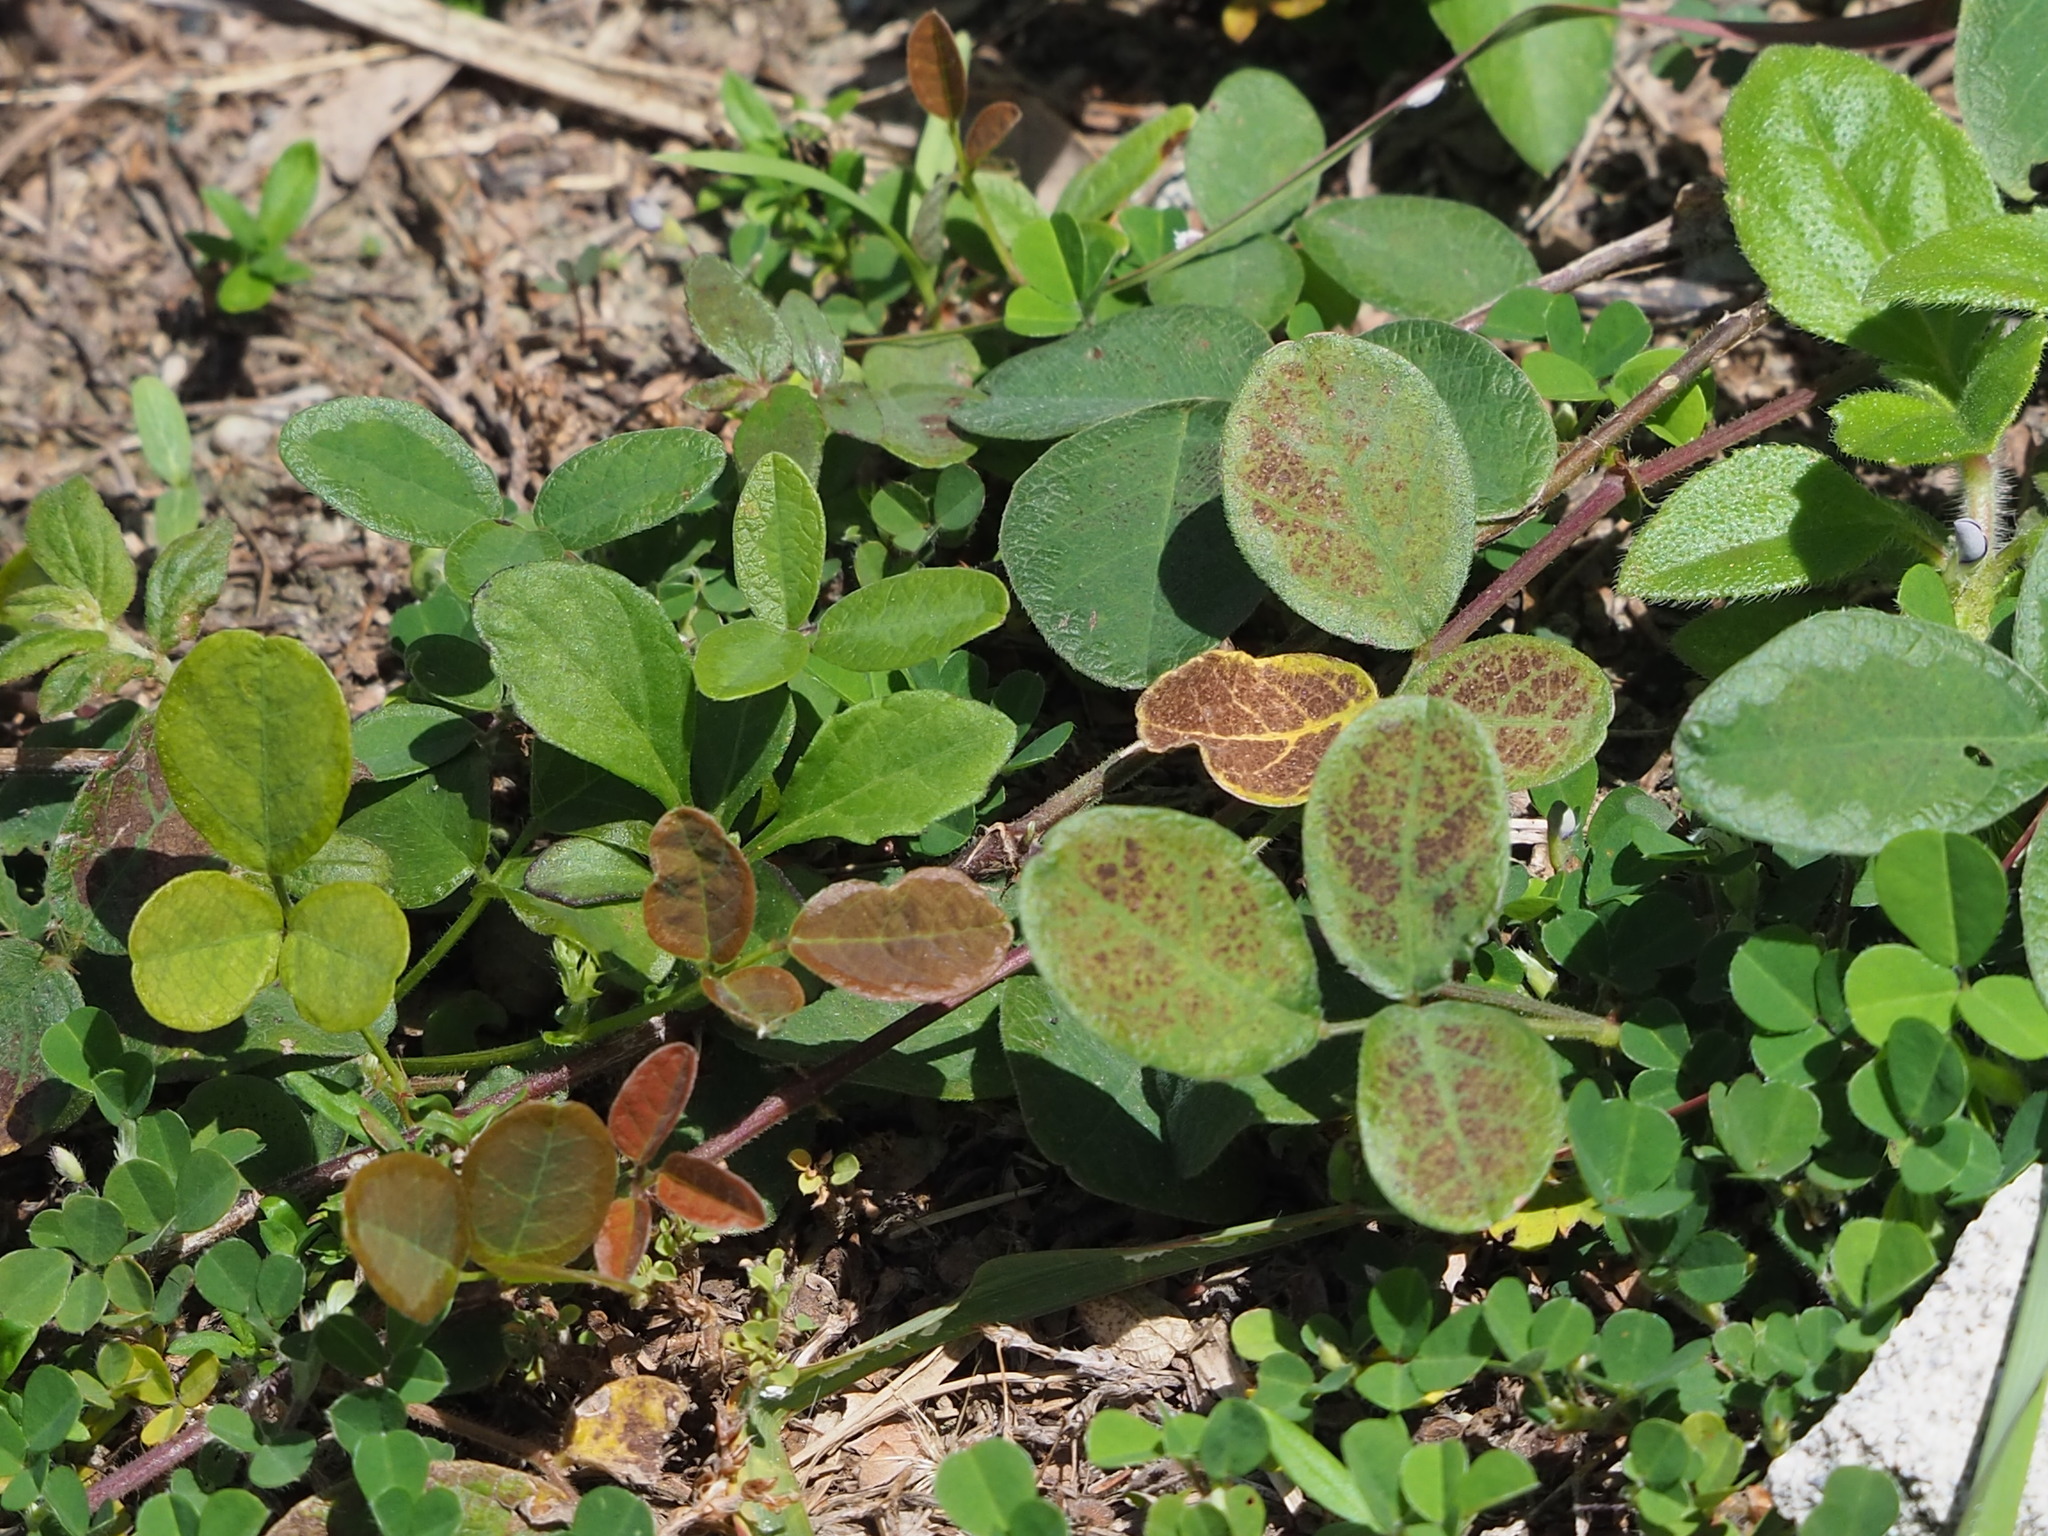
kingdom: Plantae
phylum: Tracheophyta
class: Magnoliopsida
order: Fabales
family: Fabaceae
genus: Desmodium
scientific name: Desmodium scorpiurus
